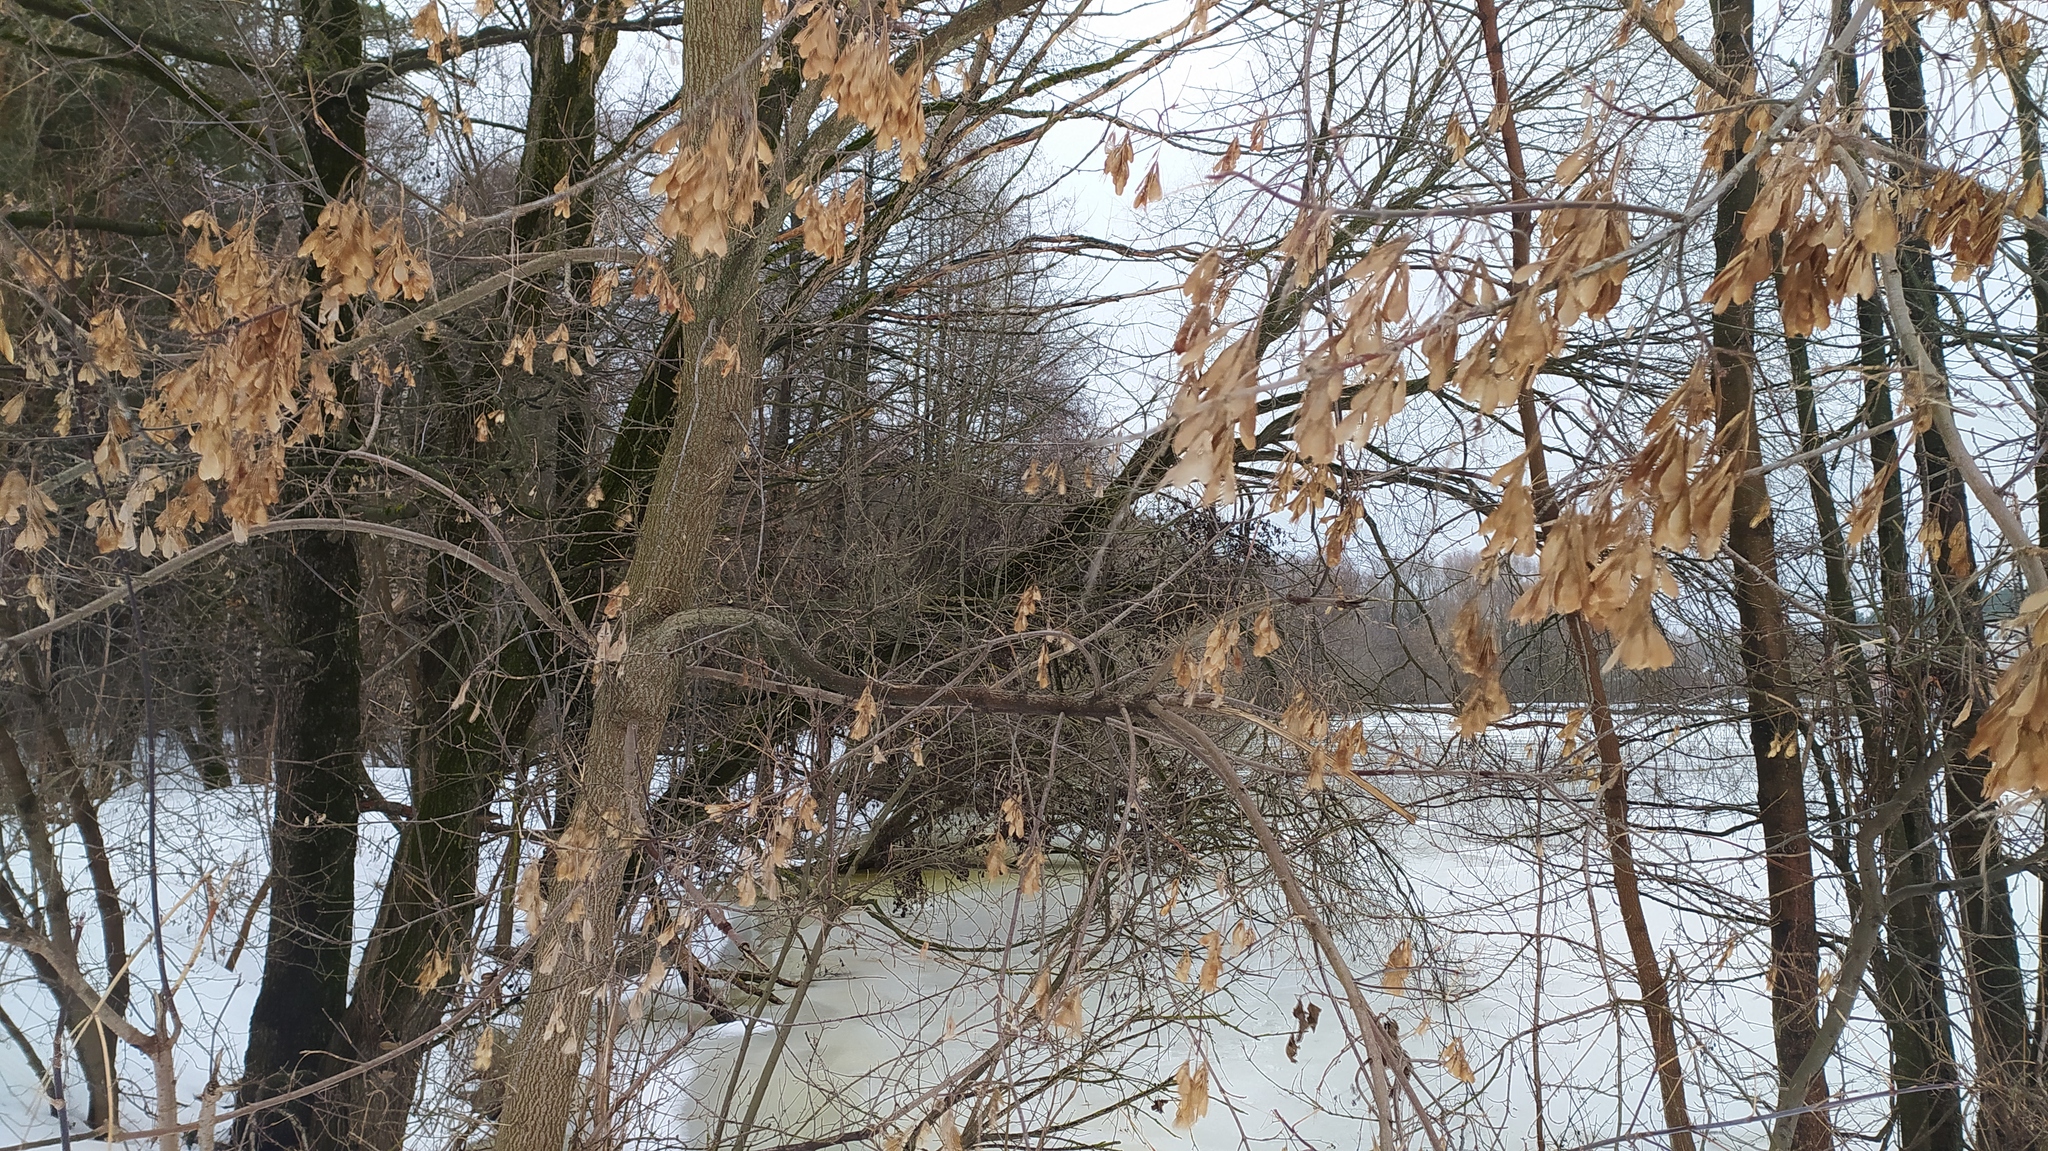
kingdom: Plantae
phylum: Tracheophyta
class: Magnoliopsida
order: Sapindales
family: Sapindaceae
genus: Acer
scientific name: Acer negundo
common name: Ashleaf maple
